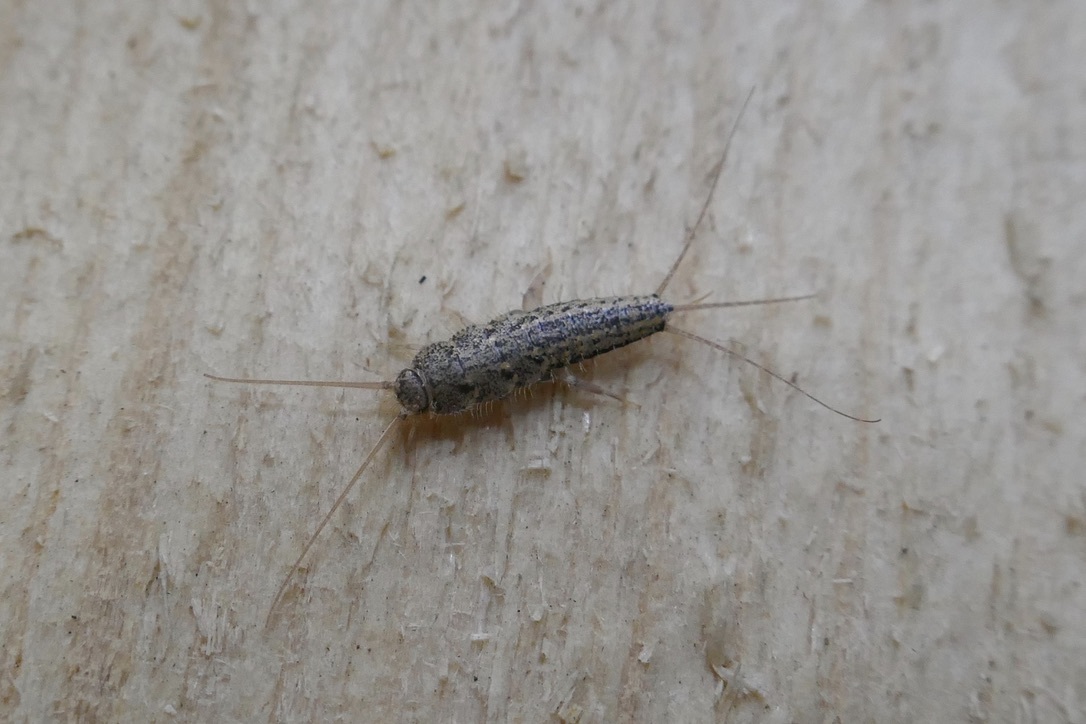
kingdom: Animalia
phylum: Arthropoda
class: Insecta
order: Zygentoma
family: Lepismatidae
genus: Ctenolepisma
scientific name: Ctenolepisma lineata
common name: Four-lined silverfish
